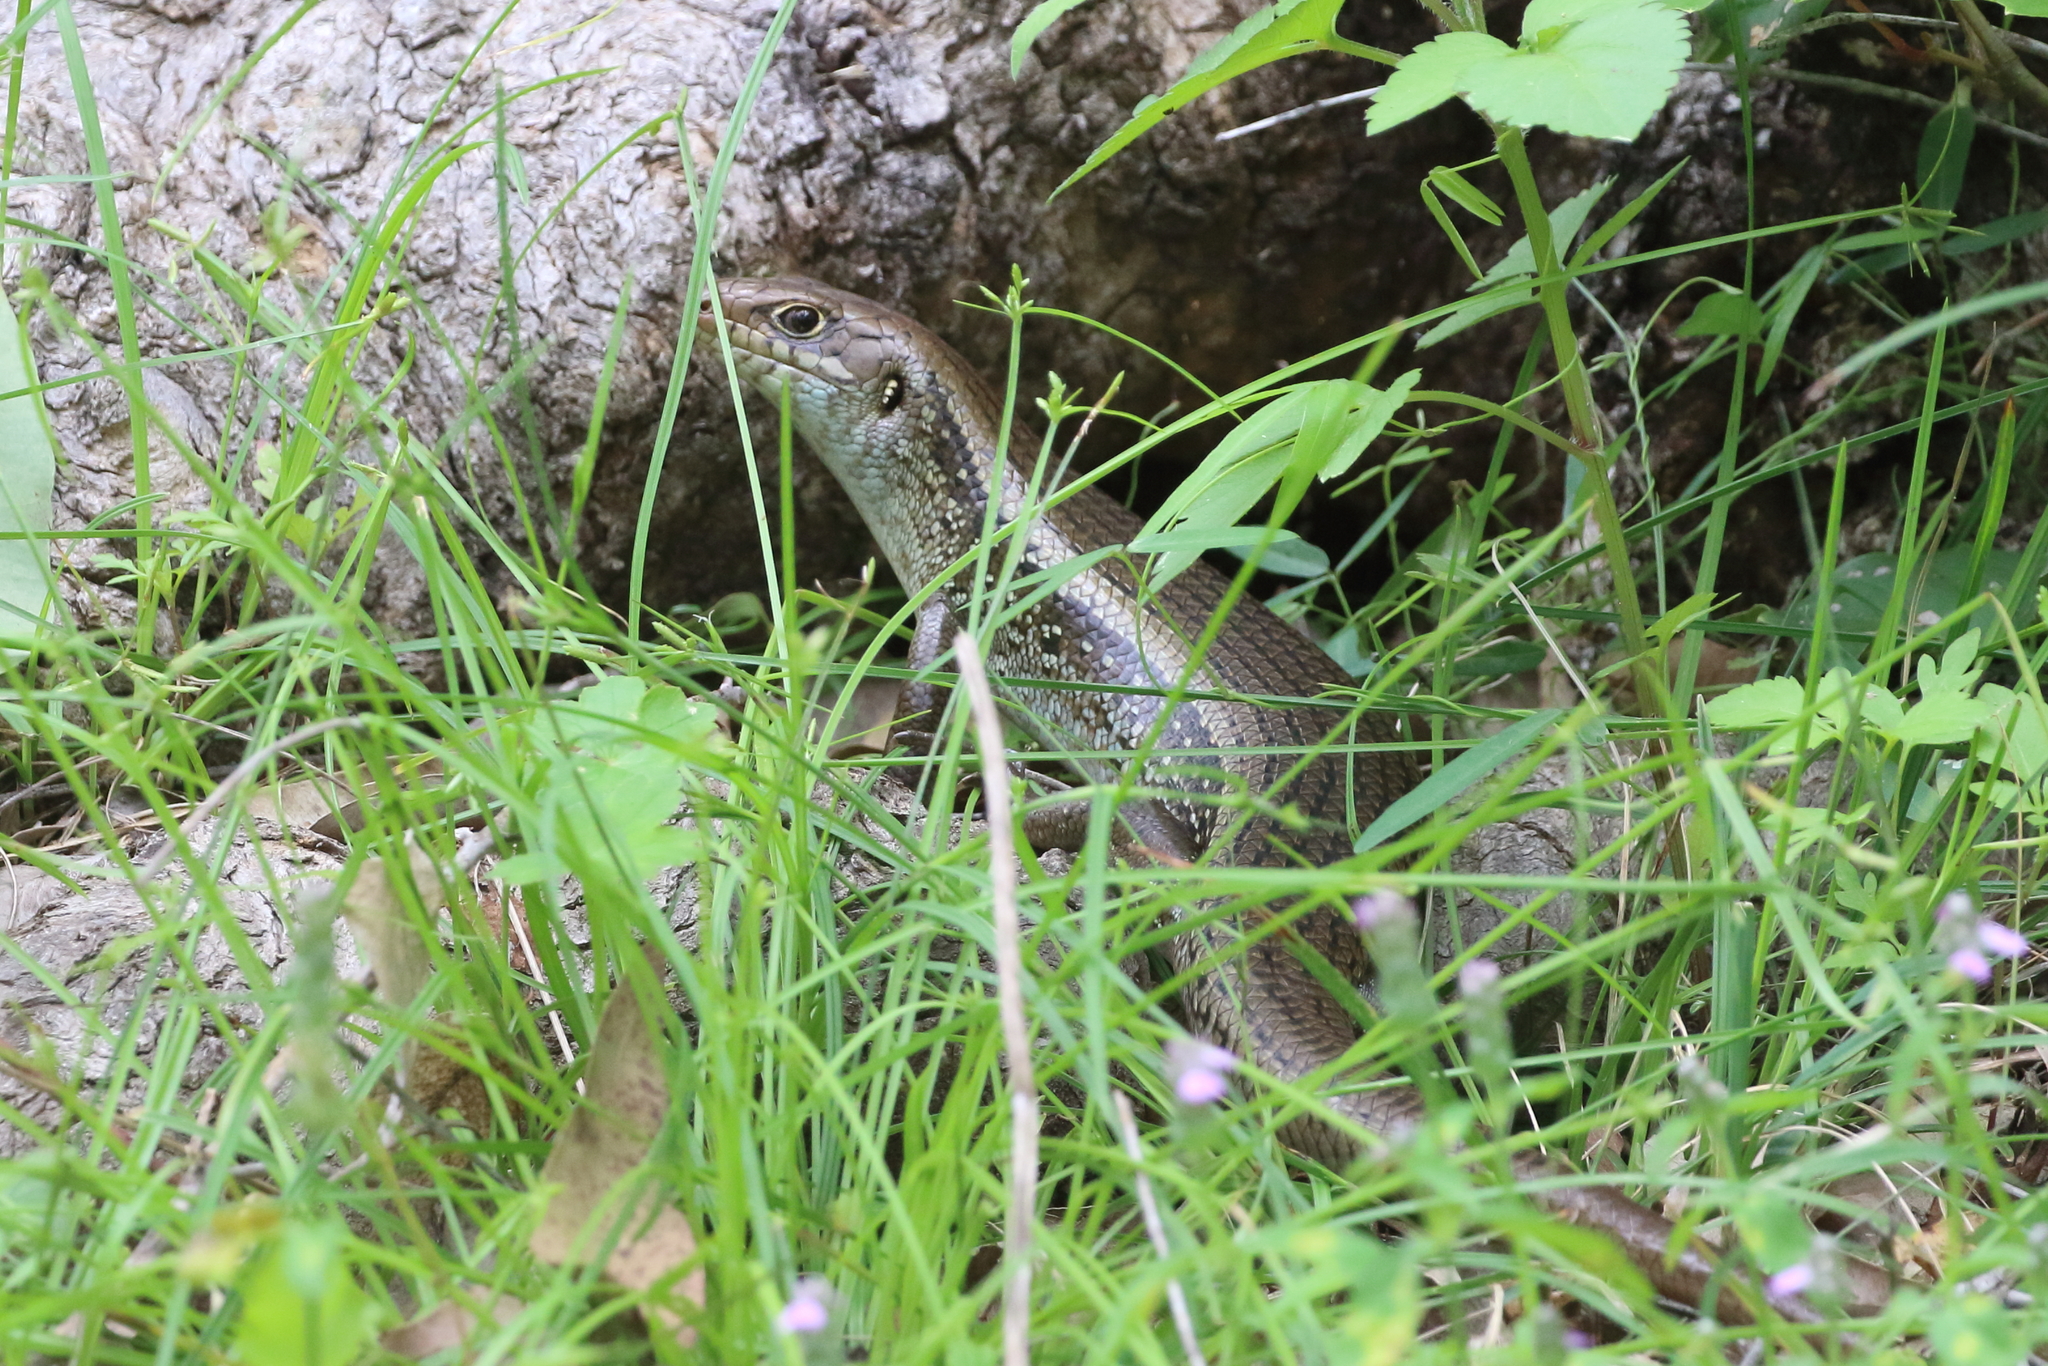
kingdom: Animalia
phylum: Chordata
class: Squamata
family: Scincidae
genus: Bellatorias
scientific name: Bellatorias frerei
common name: Major skink
